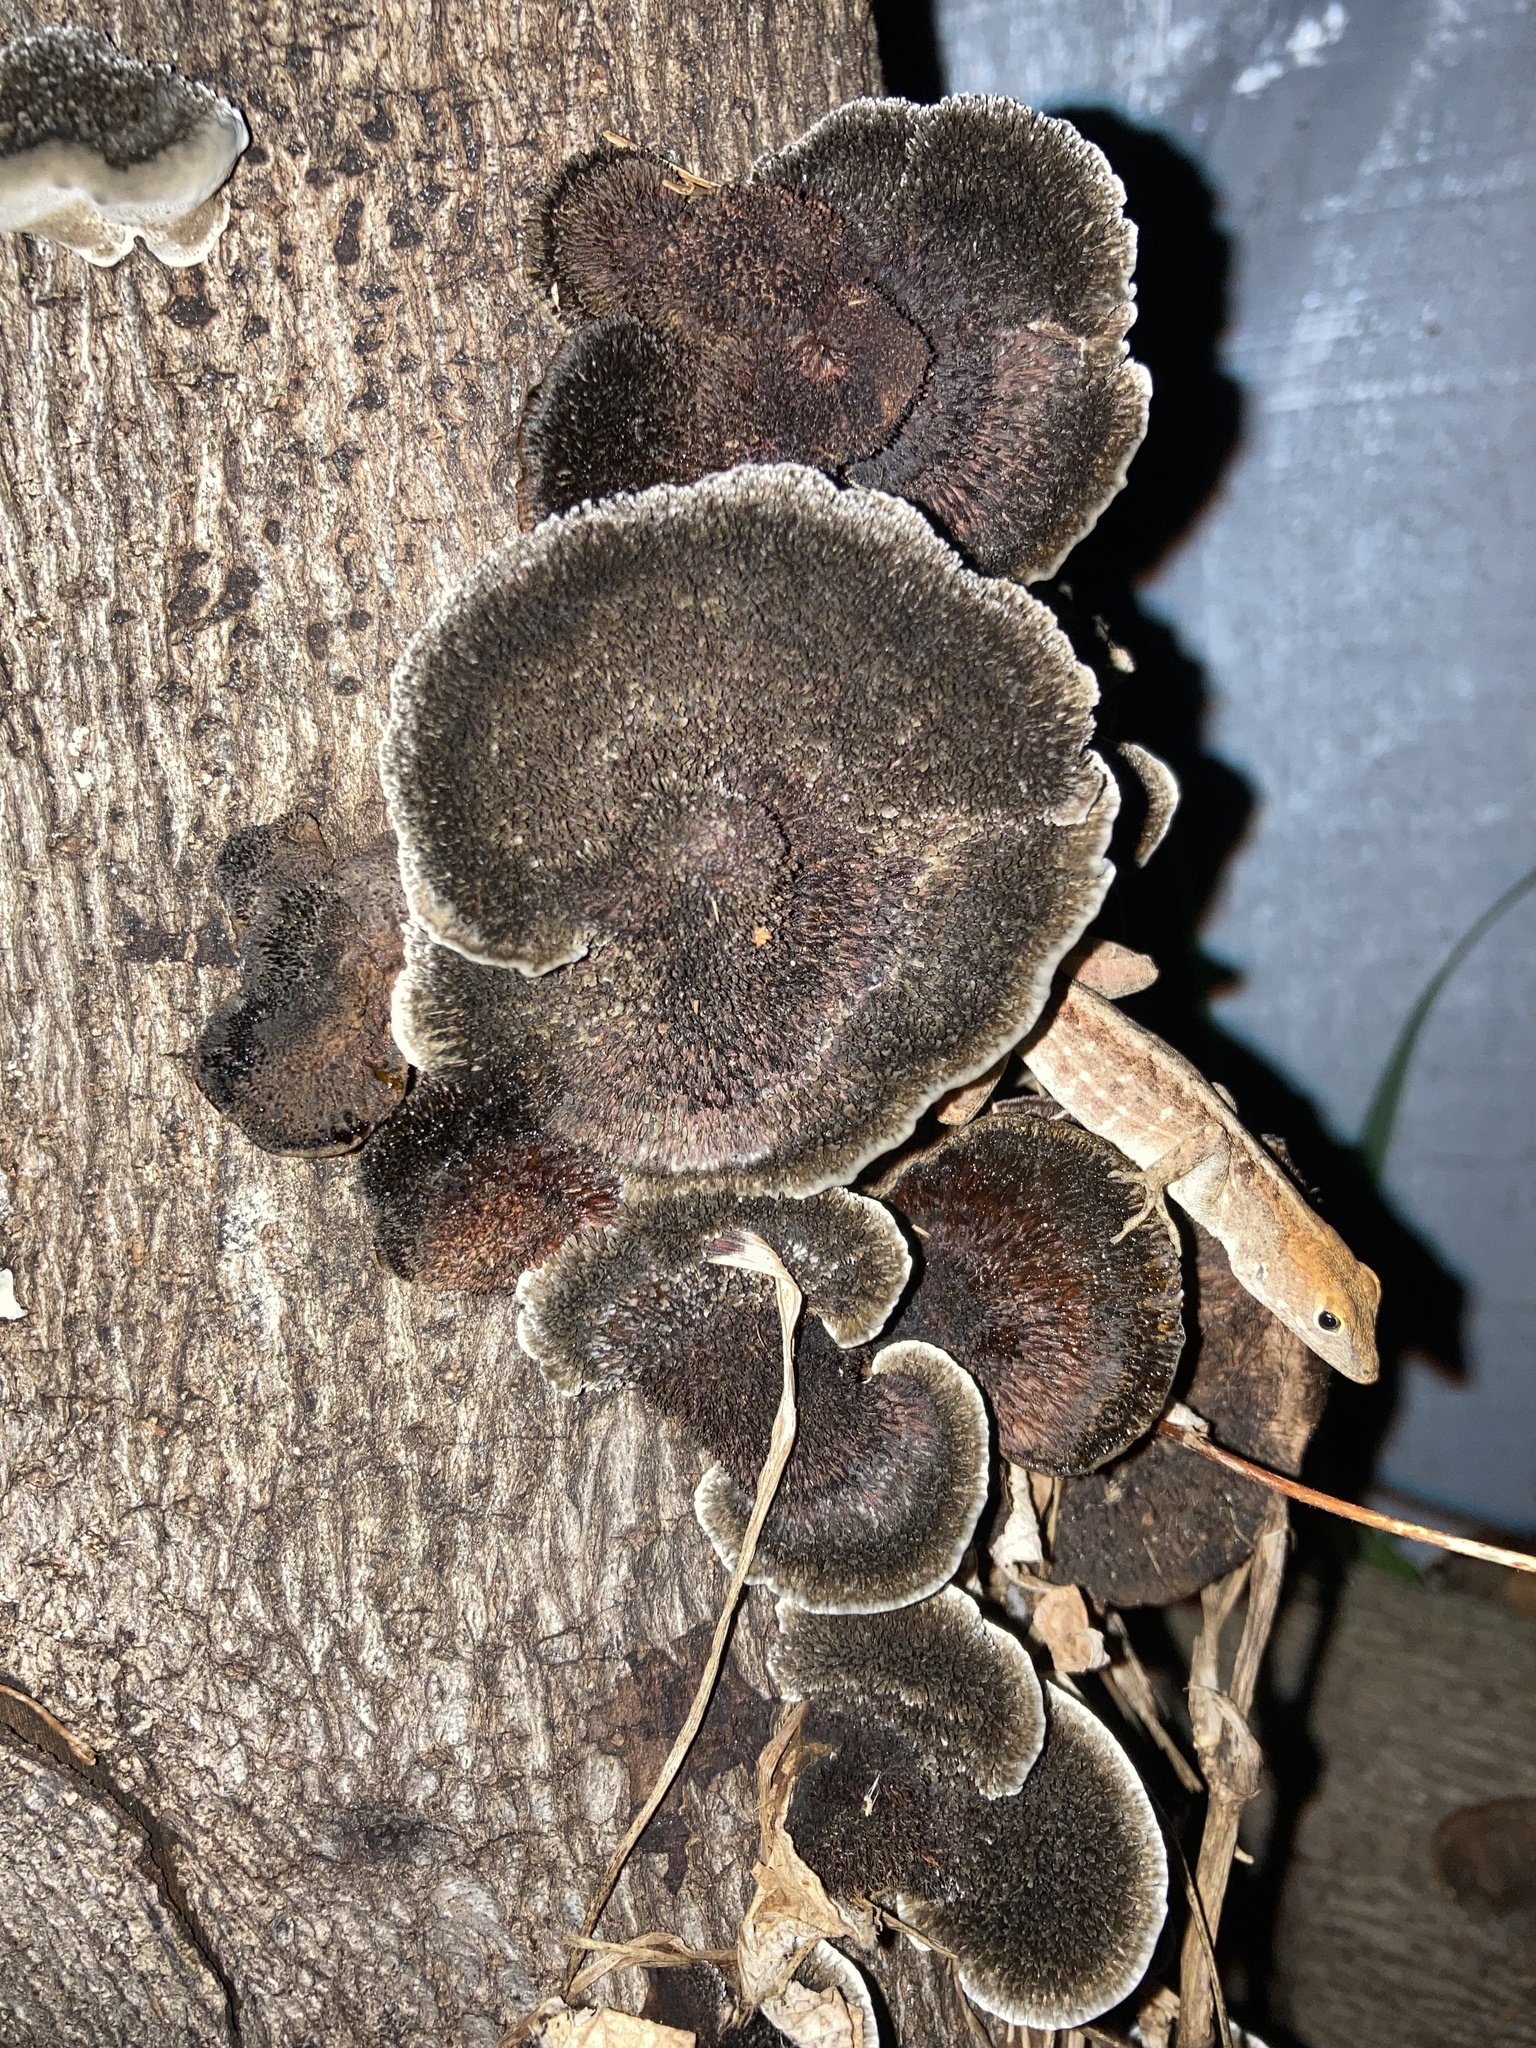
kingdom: Fungi
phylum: Basidiomycota
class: Agaricomycetes
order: Polyporales
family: Cerrenaceae
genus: Cerrena
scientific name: Cerrena hydnoides
